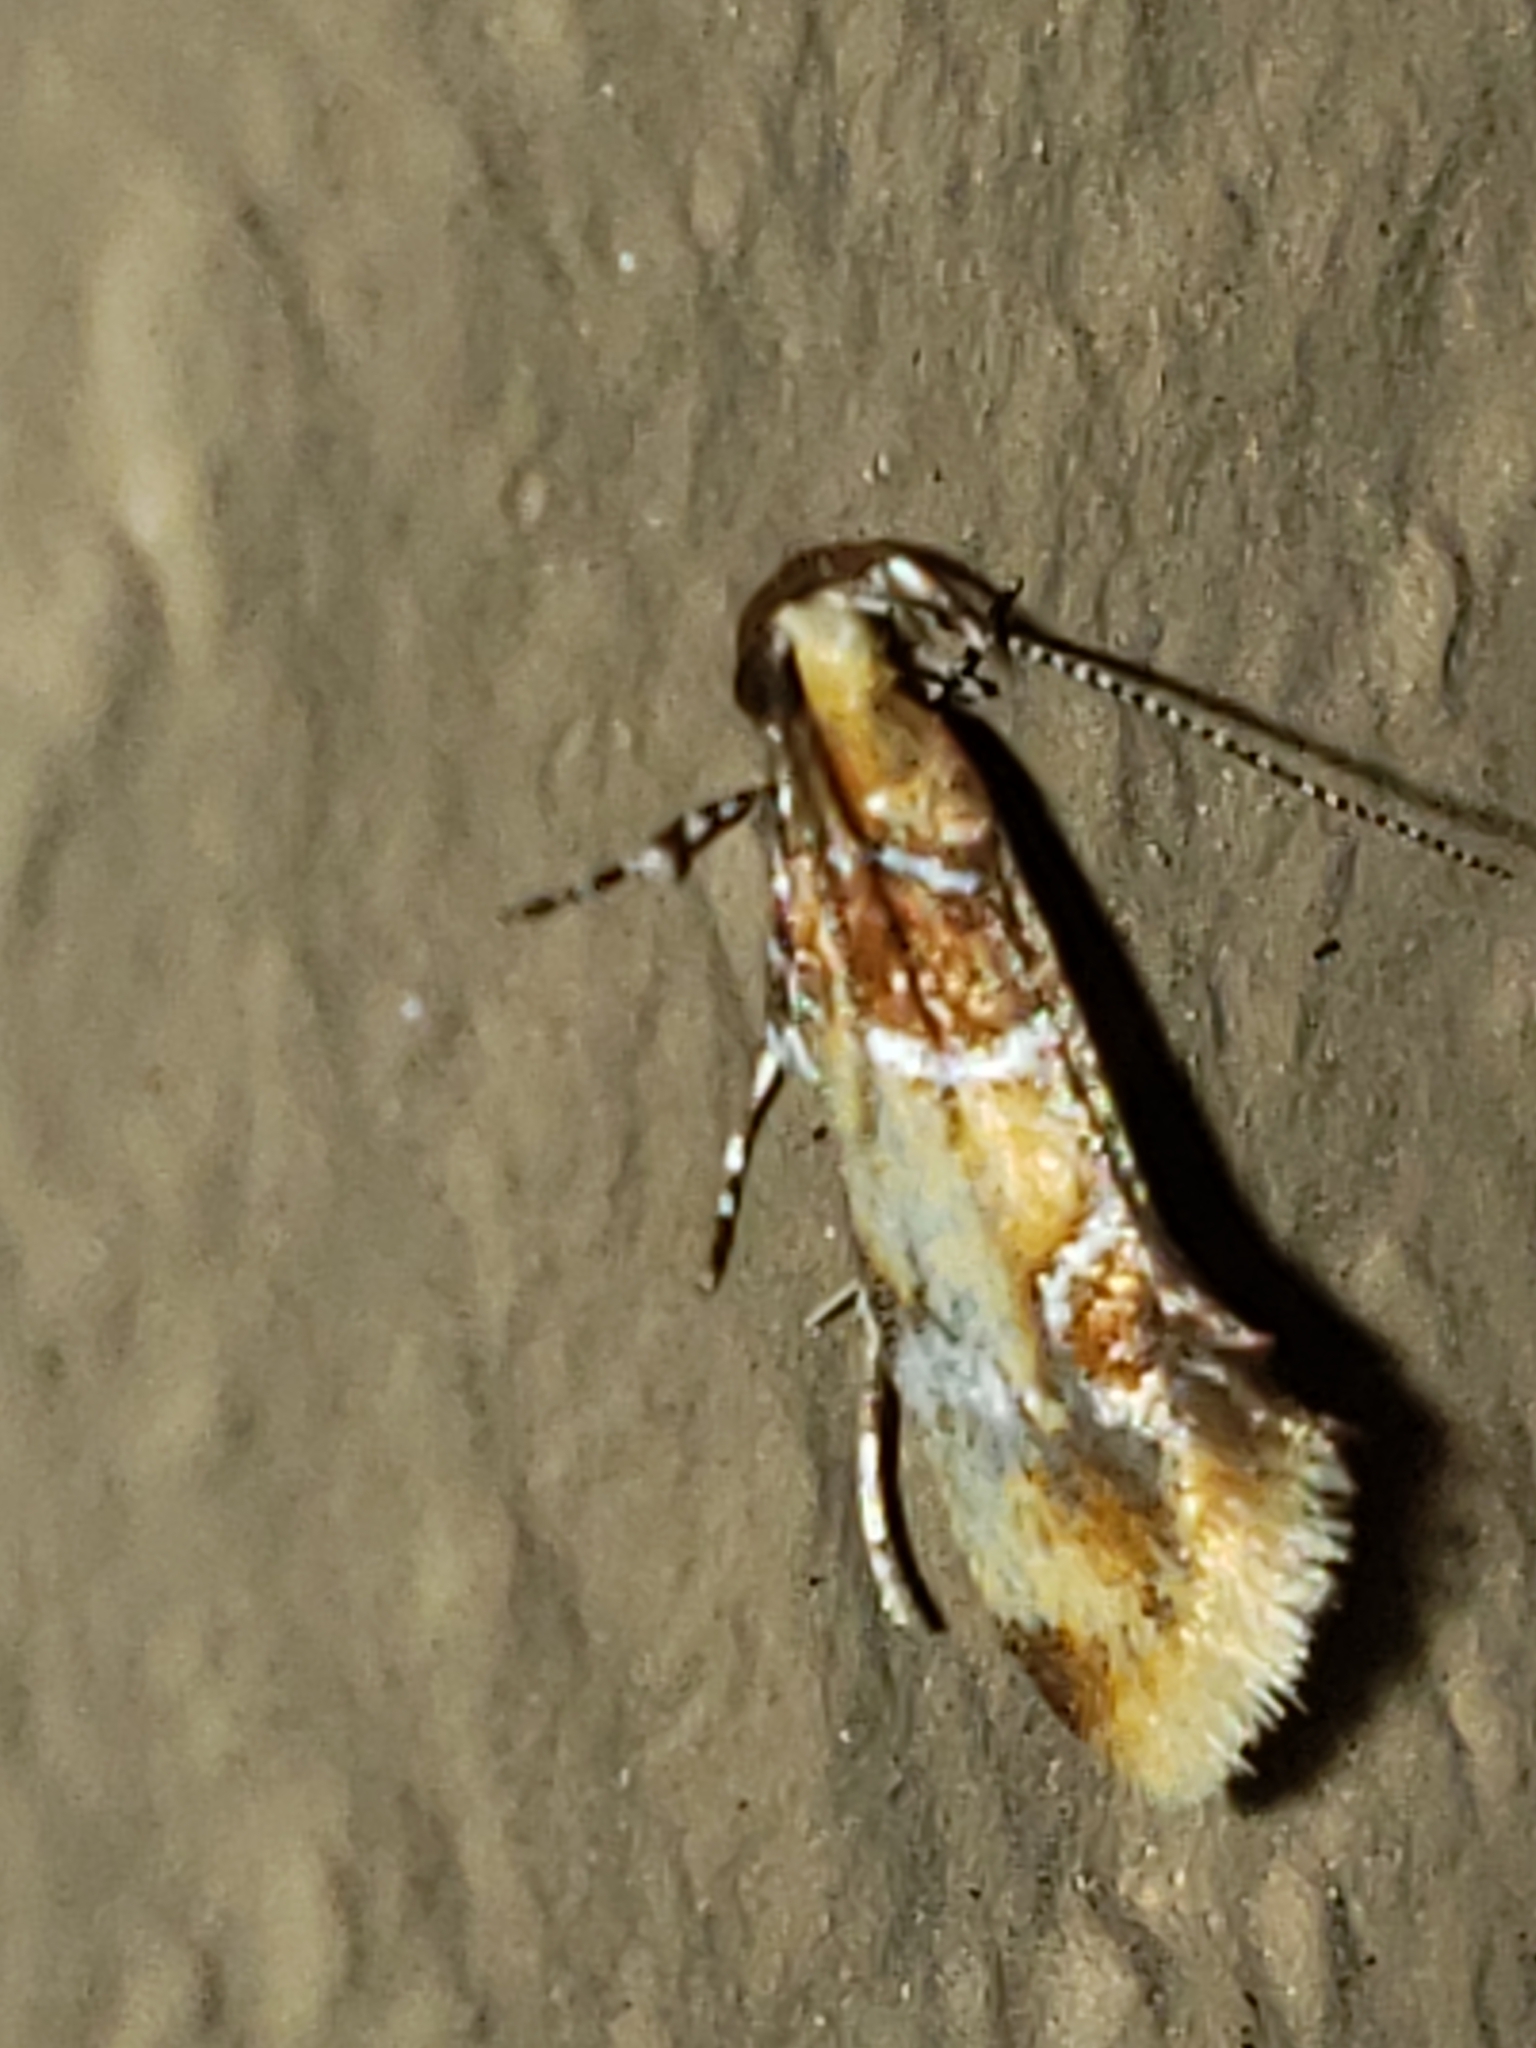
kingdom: Animalia
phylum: Arthropoda
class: Insecta
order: Lepidoptera
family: Oecophoridae
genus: Callima
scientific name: Callima argenticinctella
